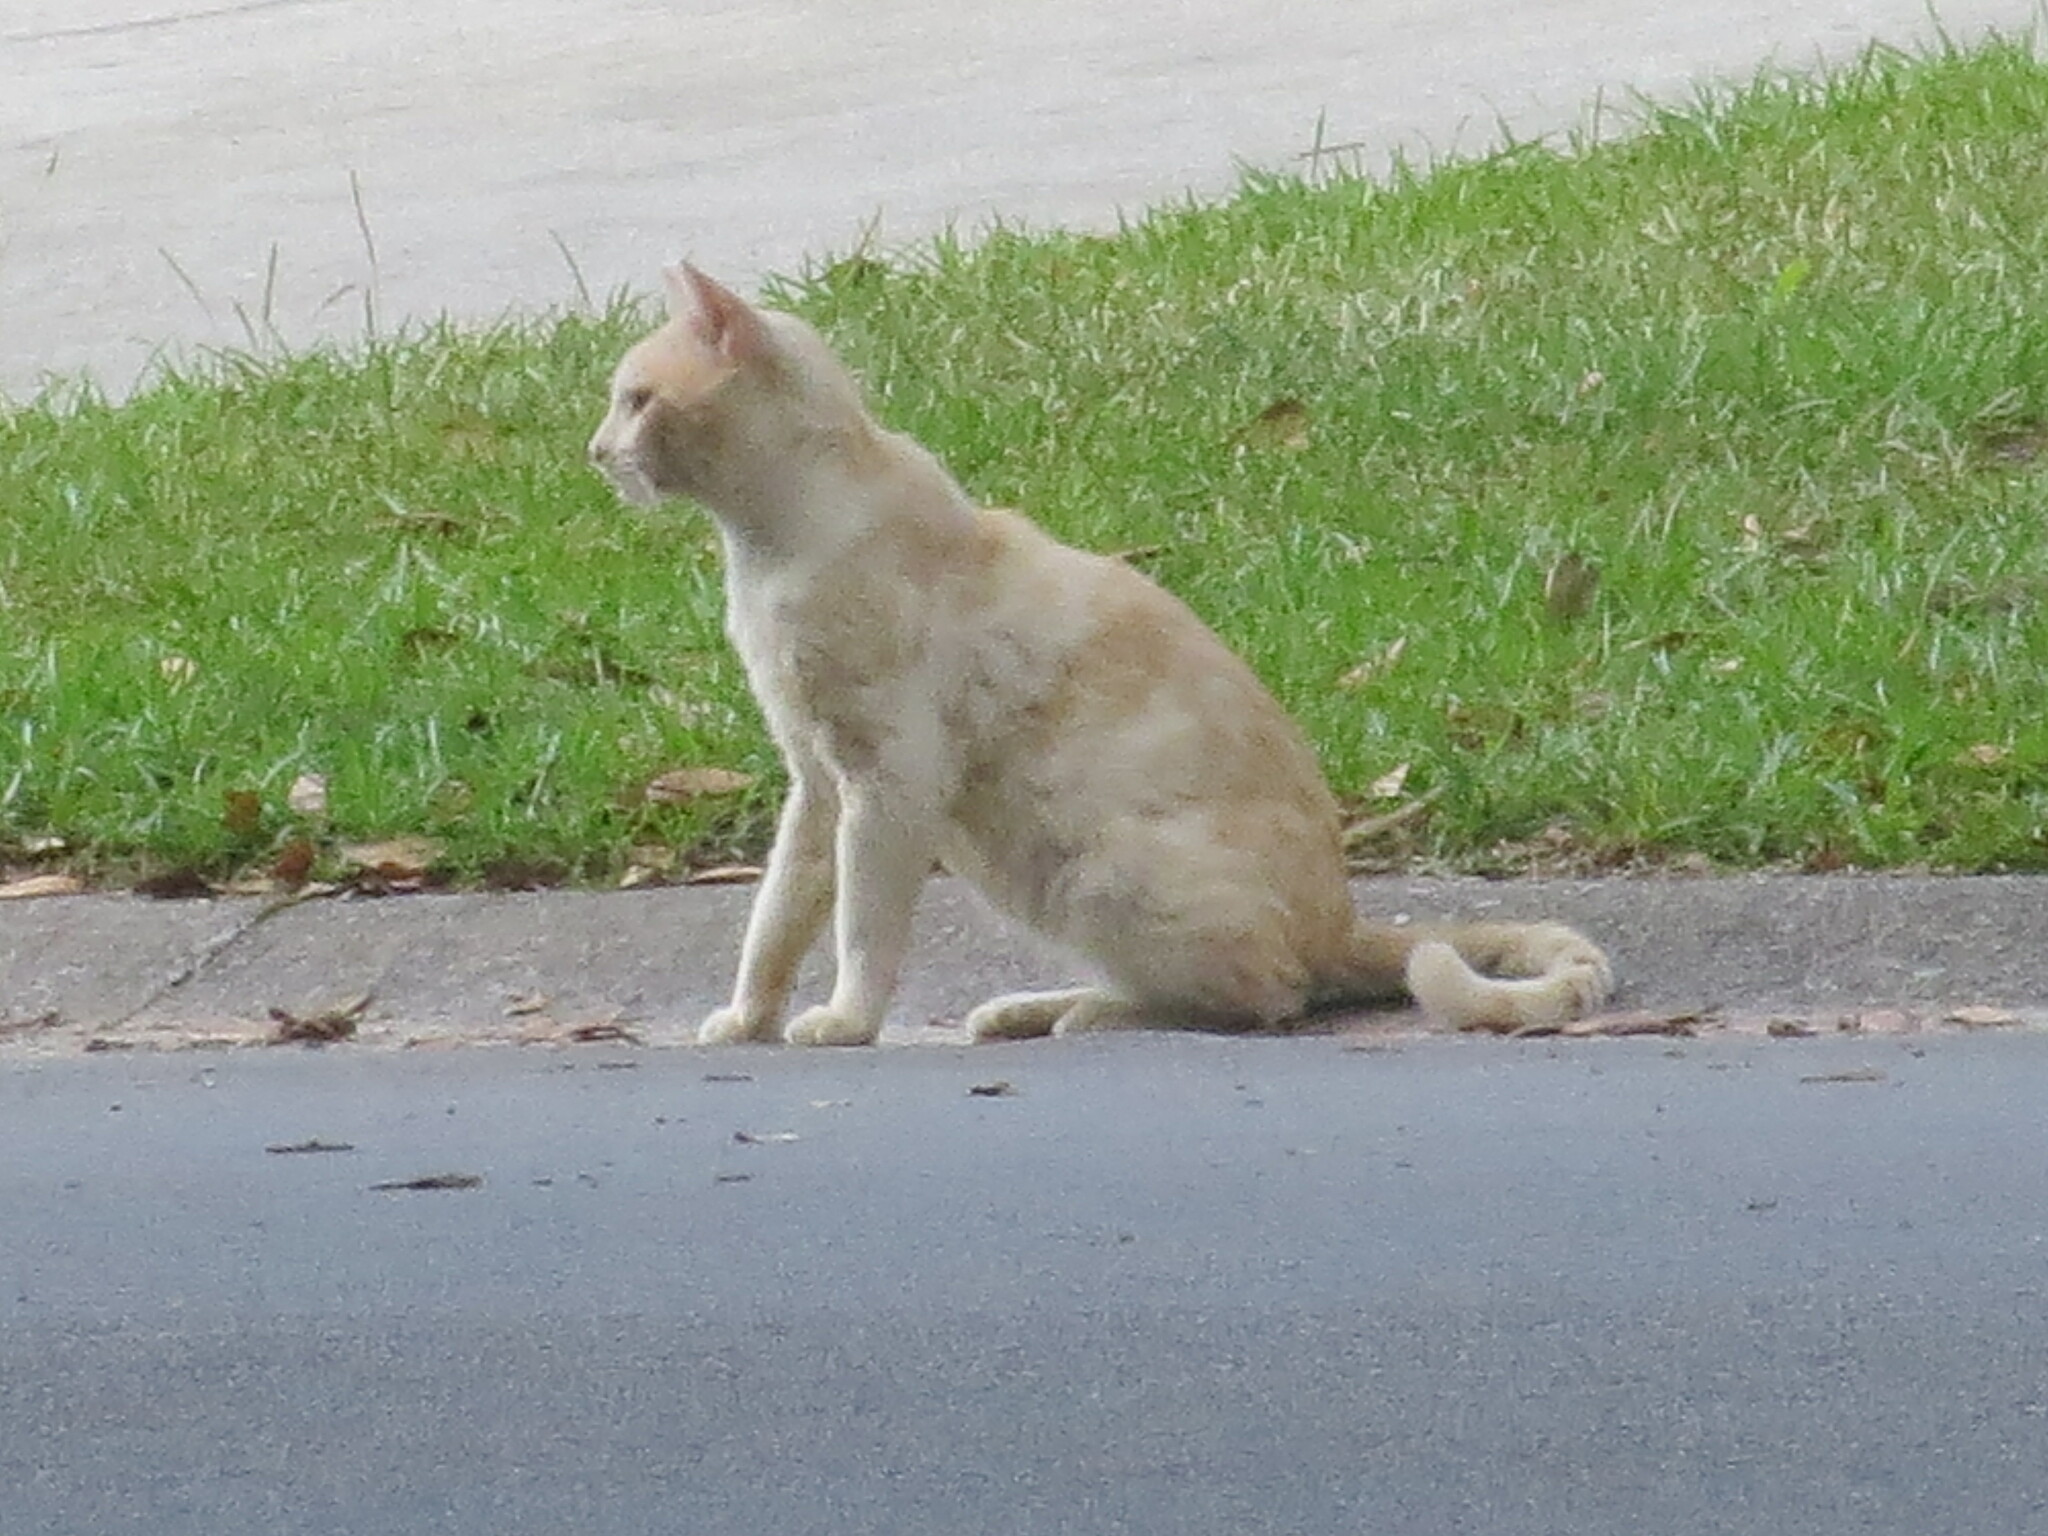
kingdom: Animalia
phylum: Chordata
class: Mammalia
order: Carnivora
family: Felidae
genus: Felis
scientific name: Felis catus
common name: Domestic cat
